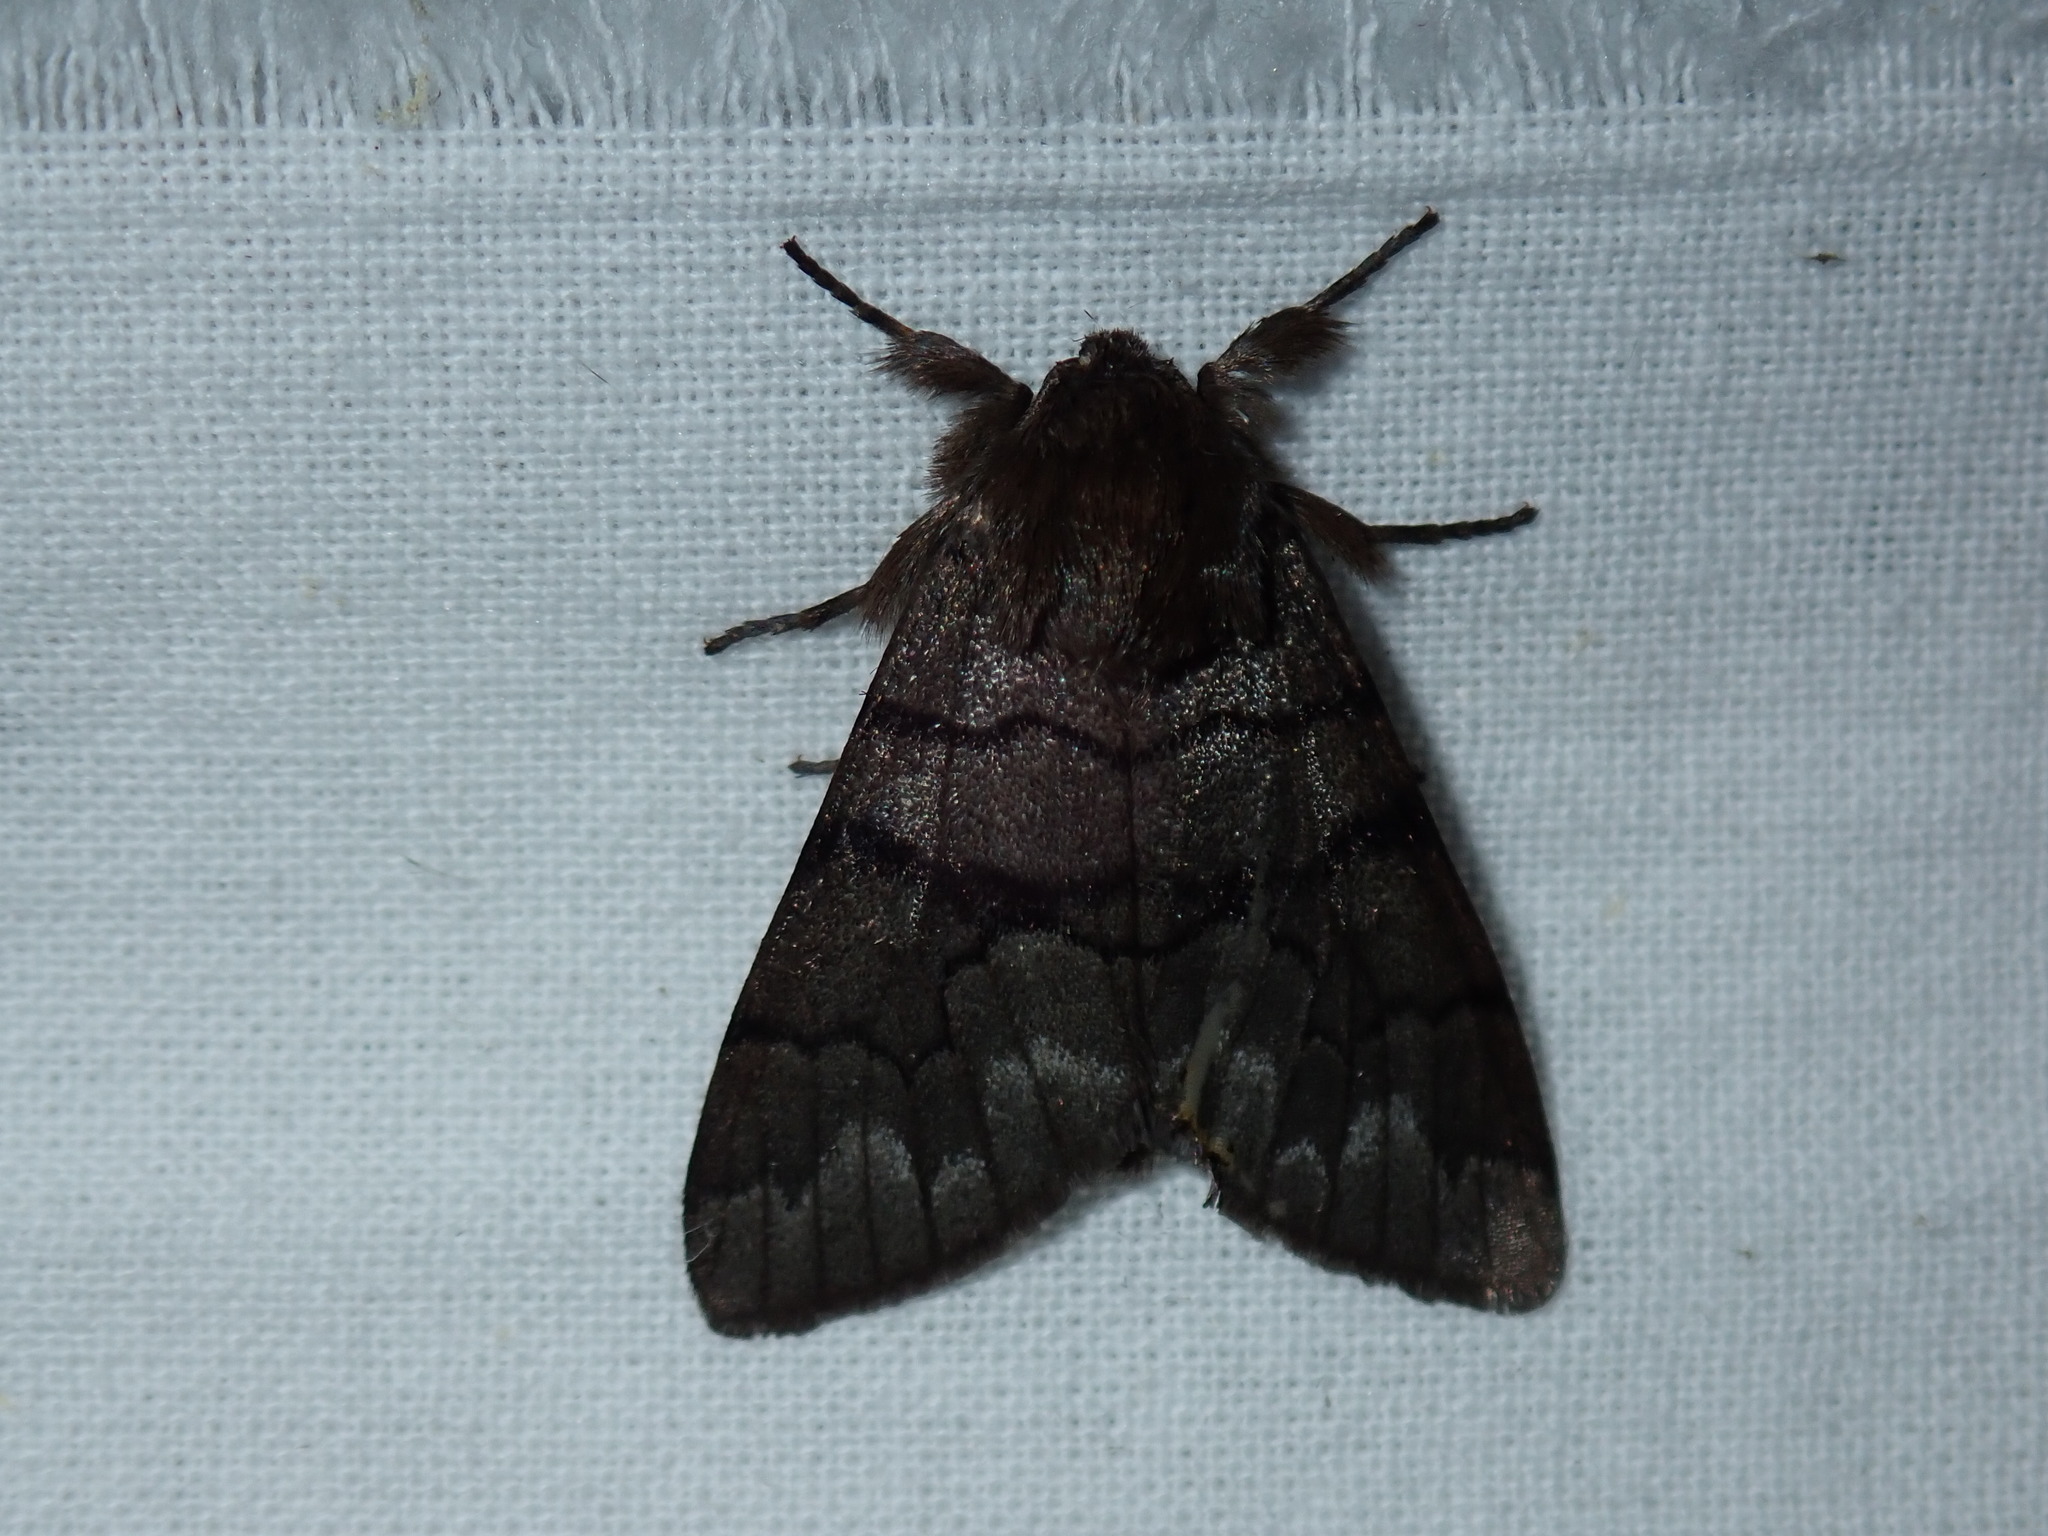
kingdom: Animalia
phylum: Arthropoda
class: Insecta
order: Lepidoptera
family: Noctuidae
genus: Panthea
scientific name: Panthea furcilla
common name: Eastern panthea moth
